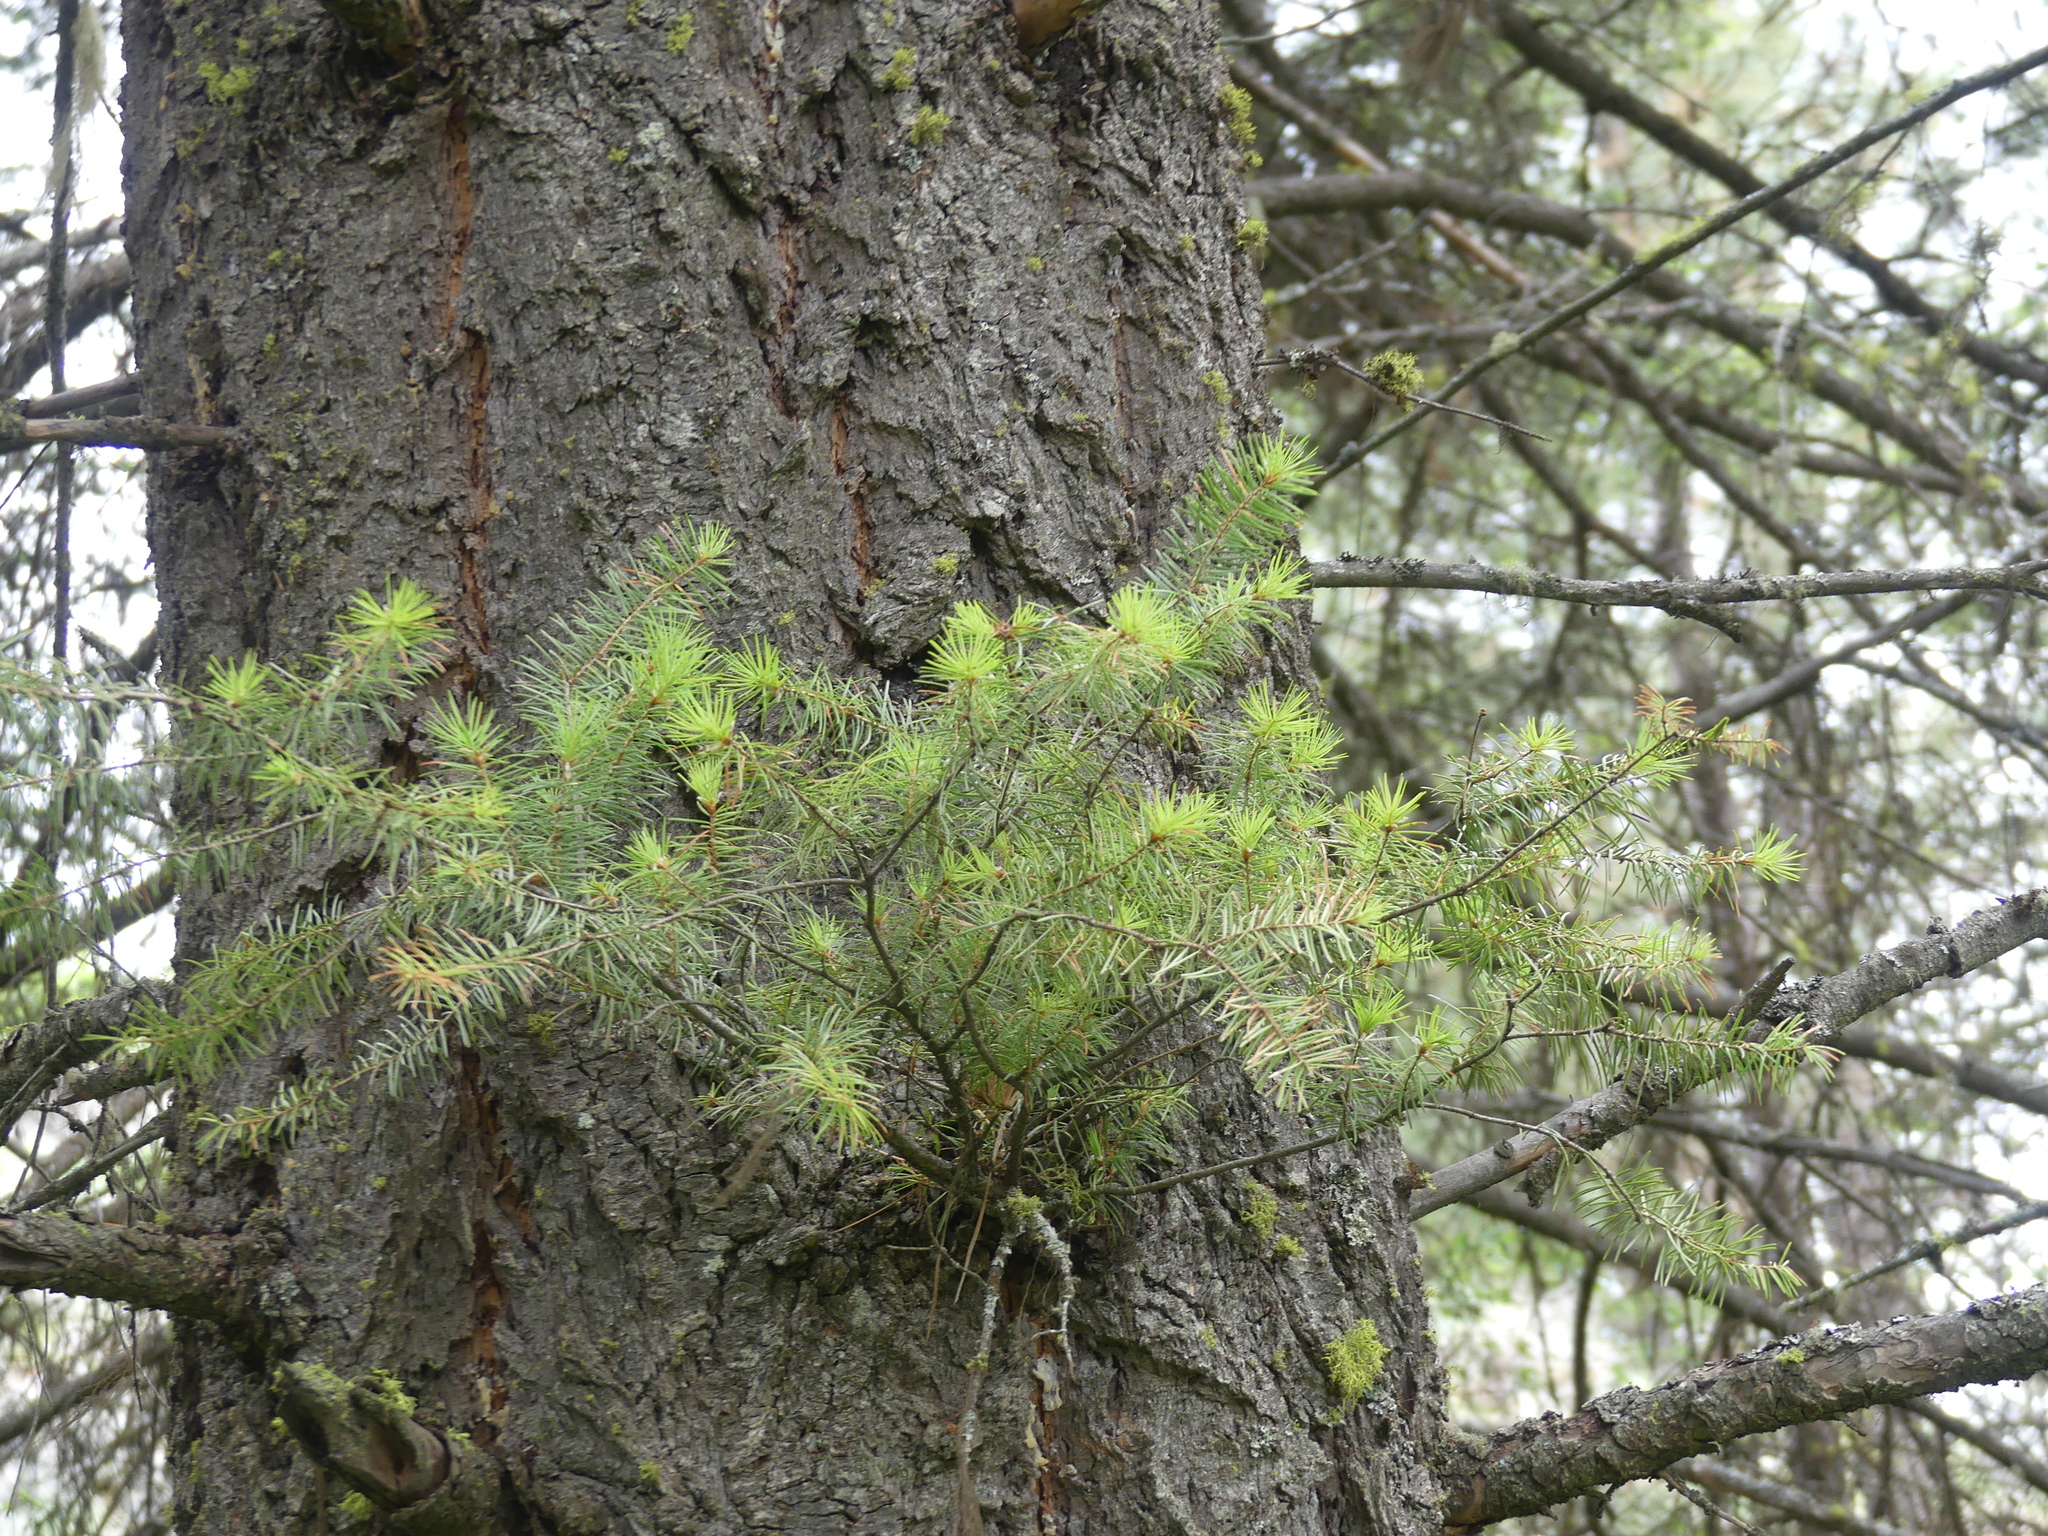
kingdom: Plantae
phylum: Tracheophyta
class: Pinopsida
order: Pinales
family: Pinaceae
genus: Pseudotsuga
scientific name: Pseudotsuga menziesii
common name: Douglas fir
